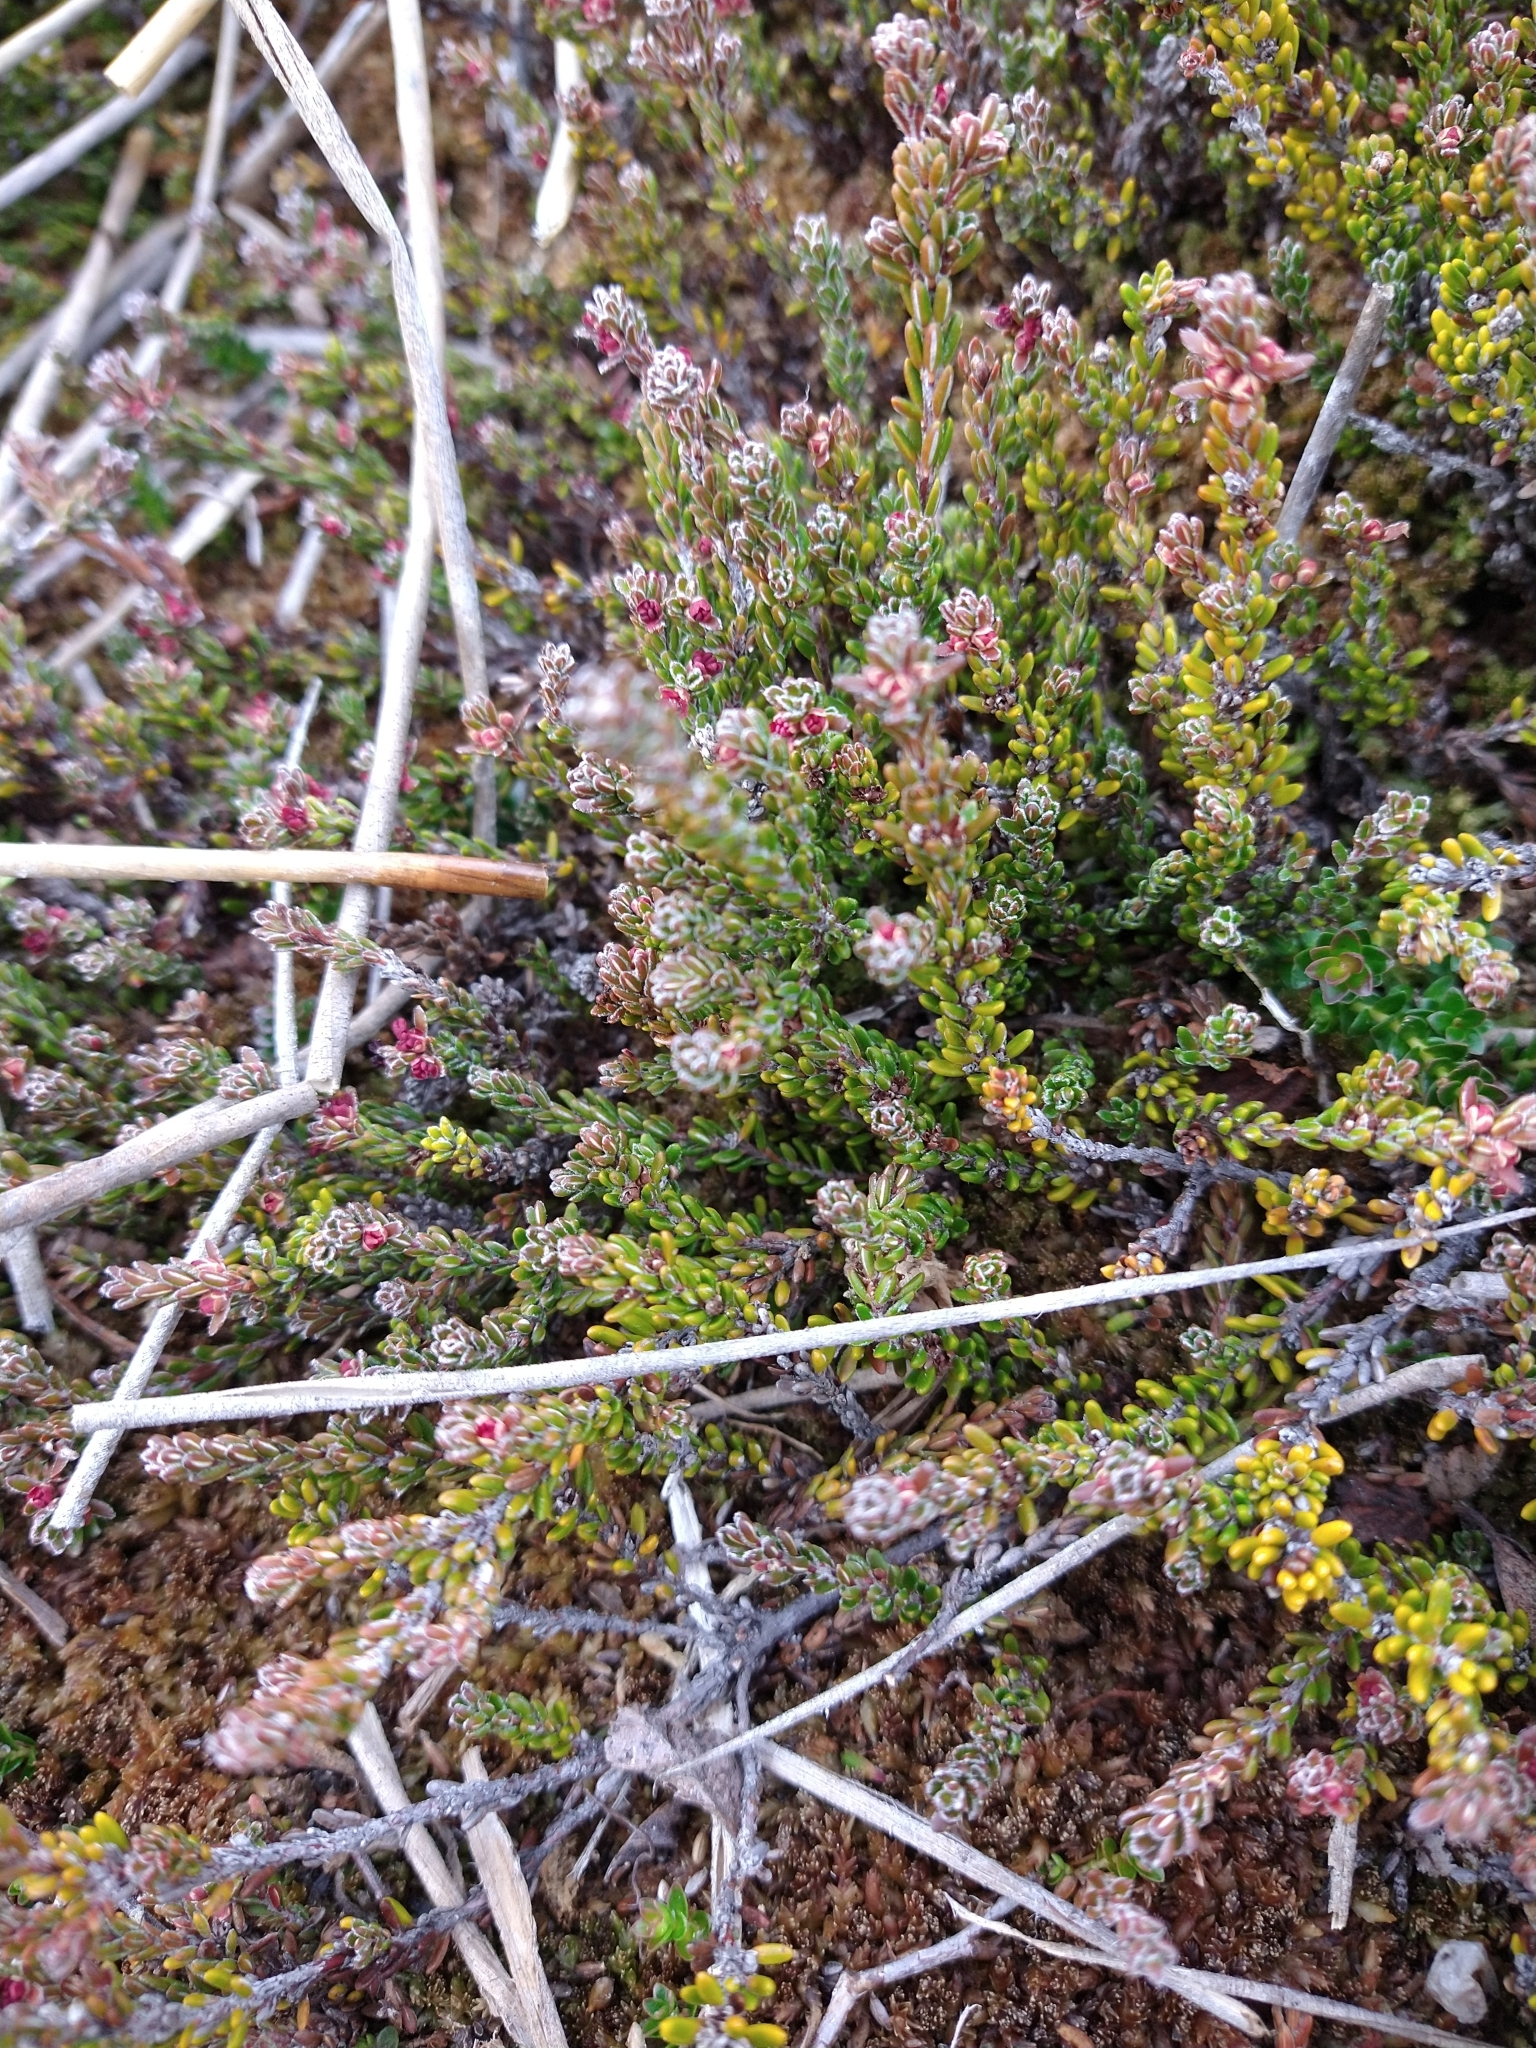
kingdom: Plantae
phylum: Tracheophyta
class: Magnoliopsida
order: Ericales
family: Ericaceae
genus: Empetrum
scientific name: Empetrum rubrum
